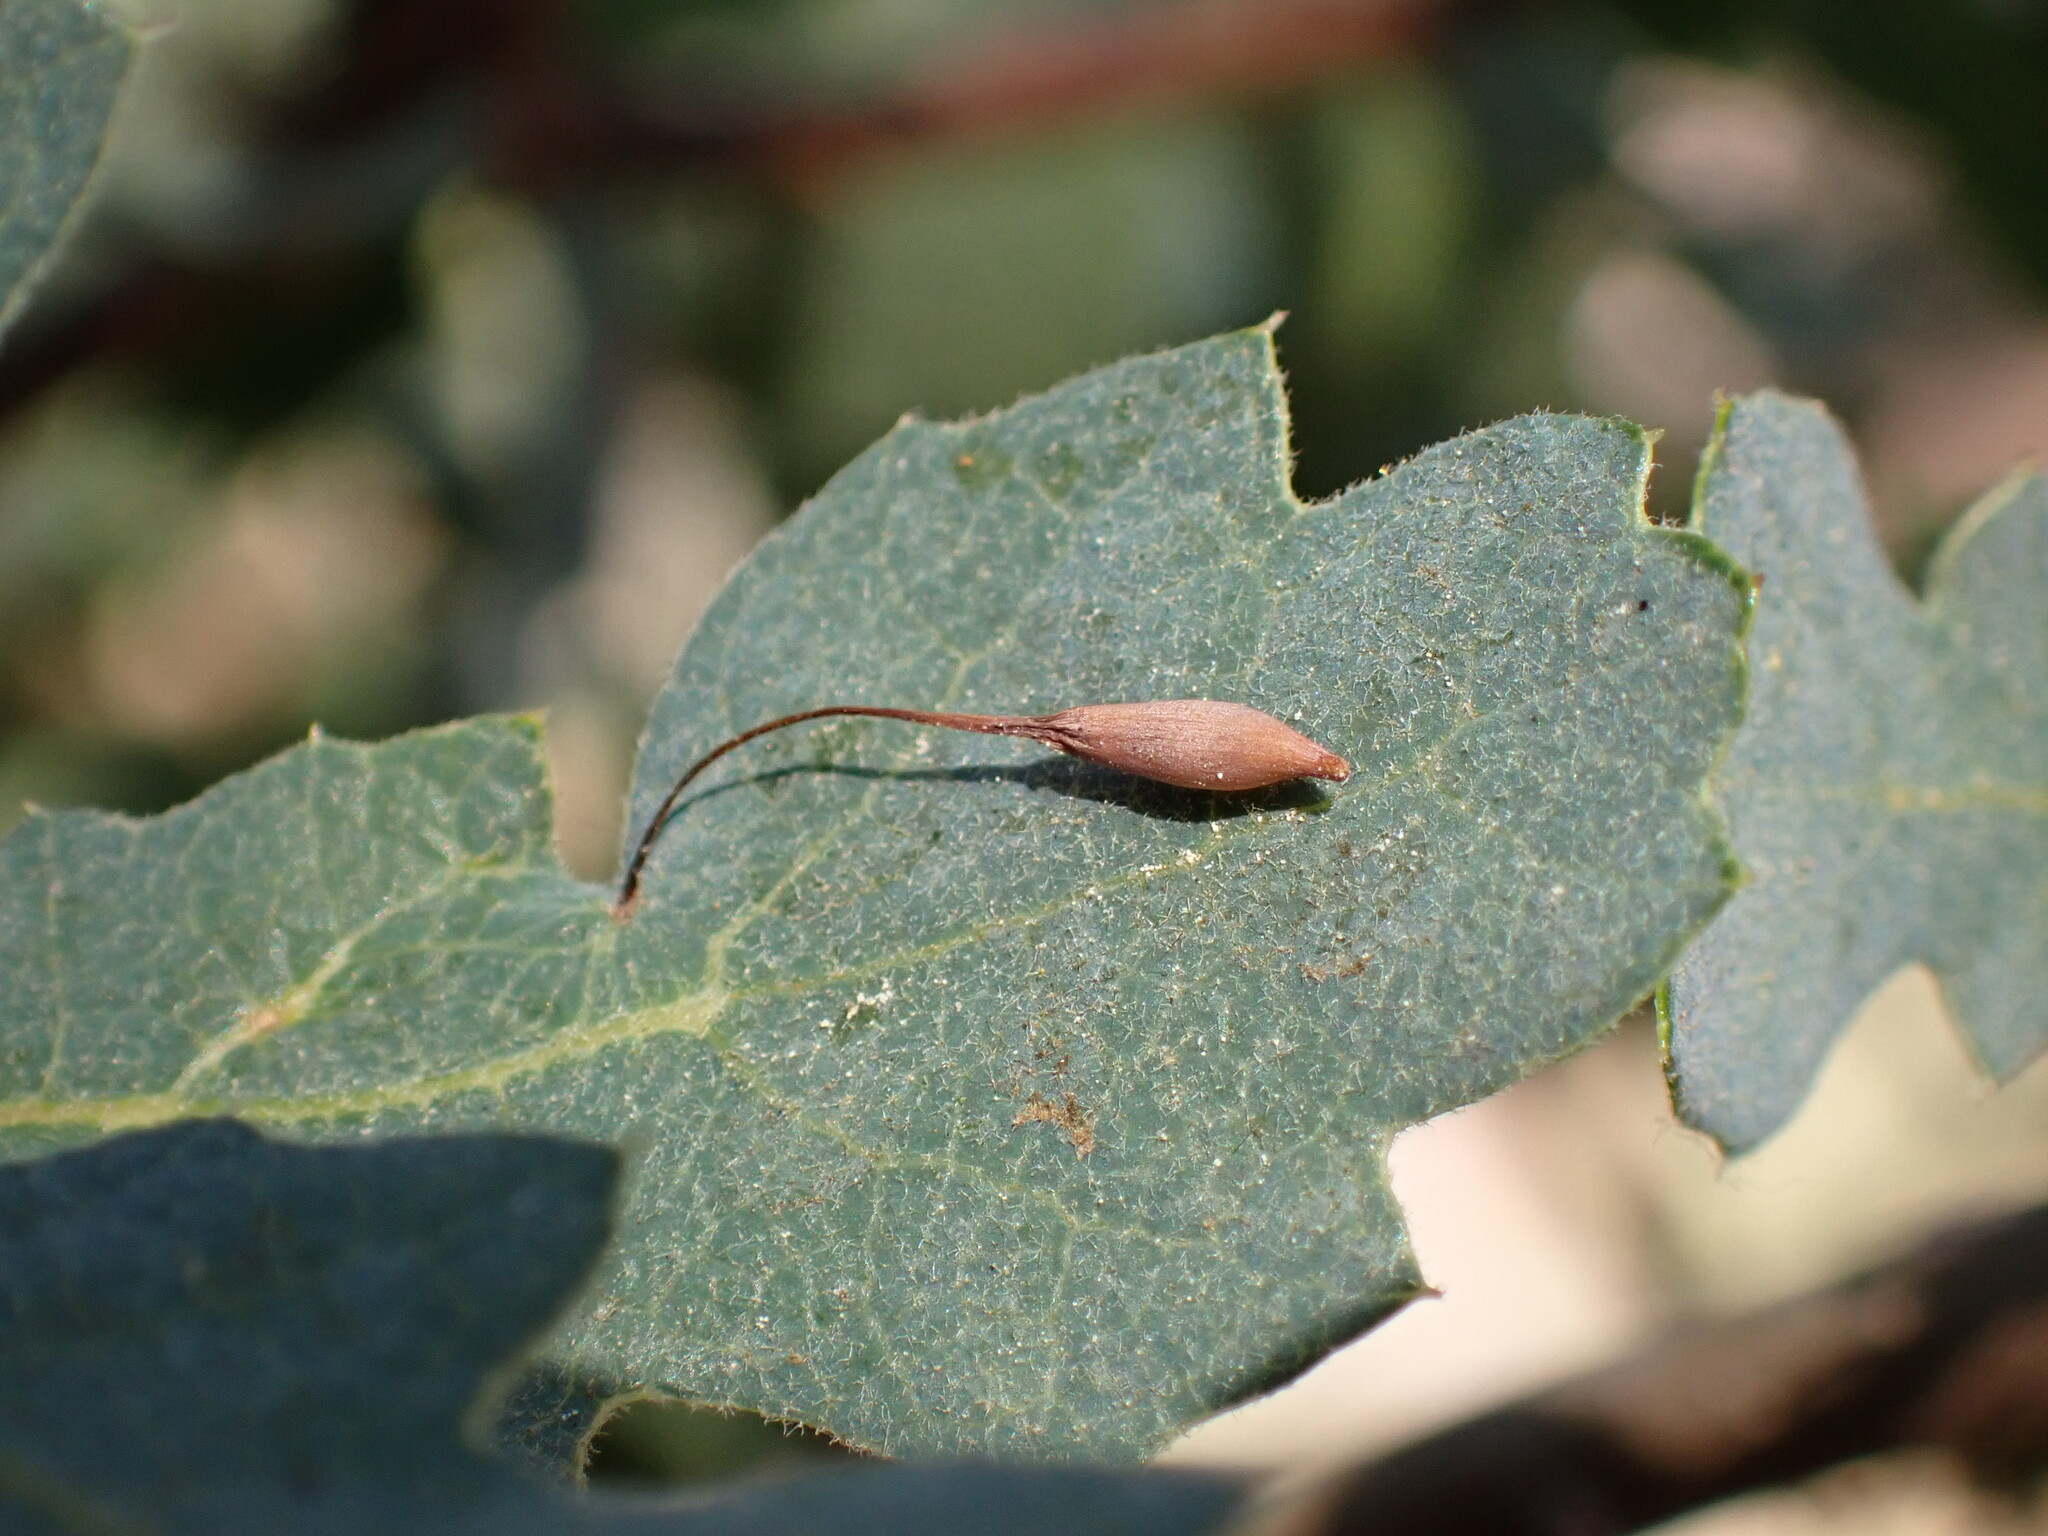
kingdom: Animalia
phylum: Arthropoda
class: Insecta
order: Hymenoptera
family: Cynipidae
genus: Andricus
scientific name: Andricus
